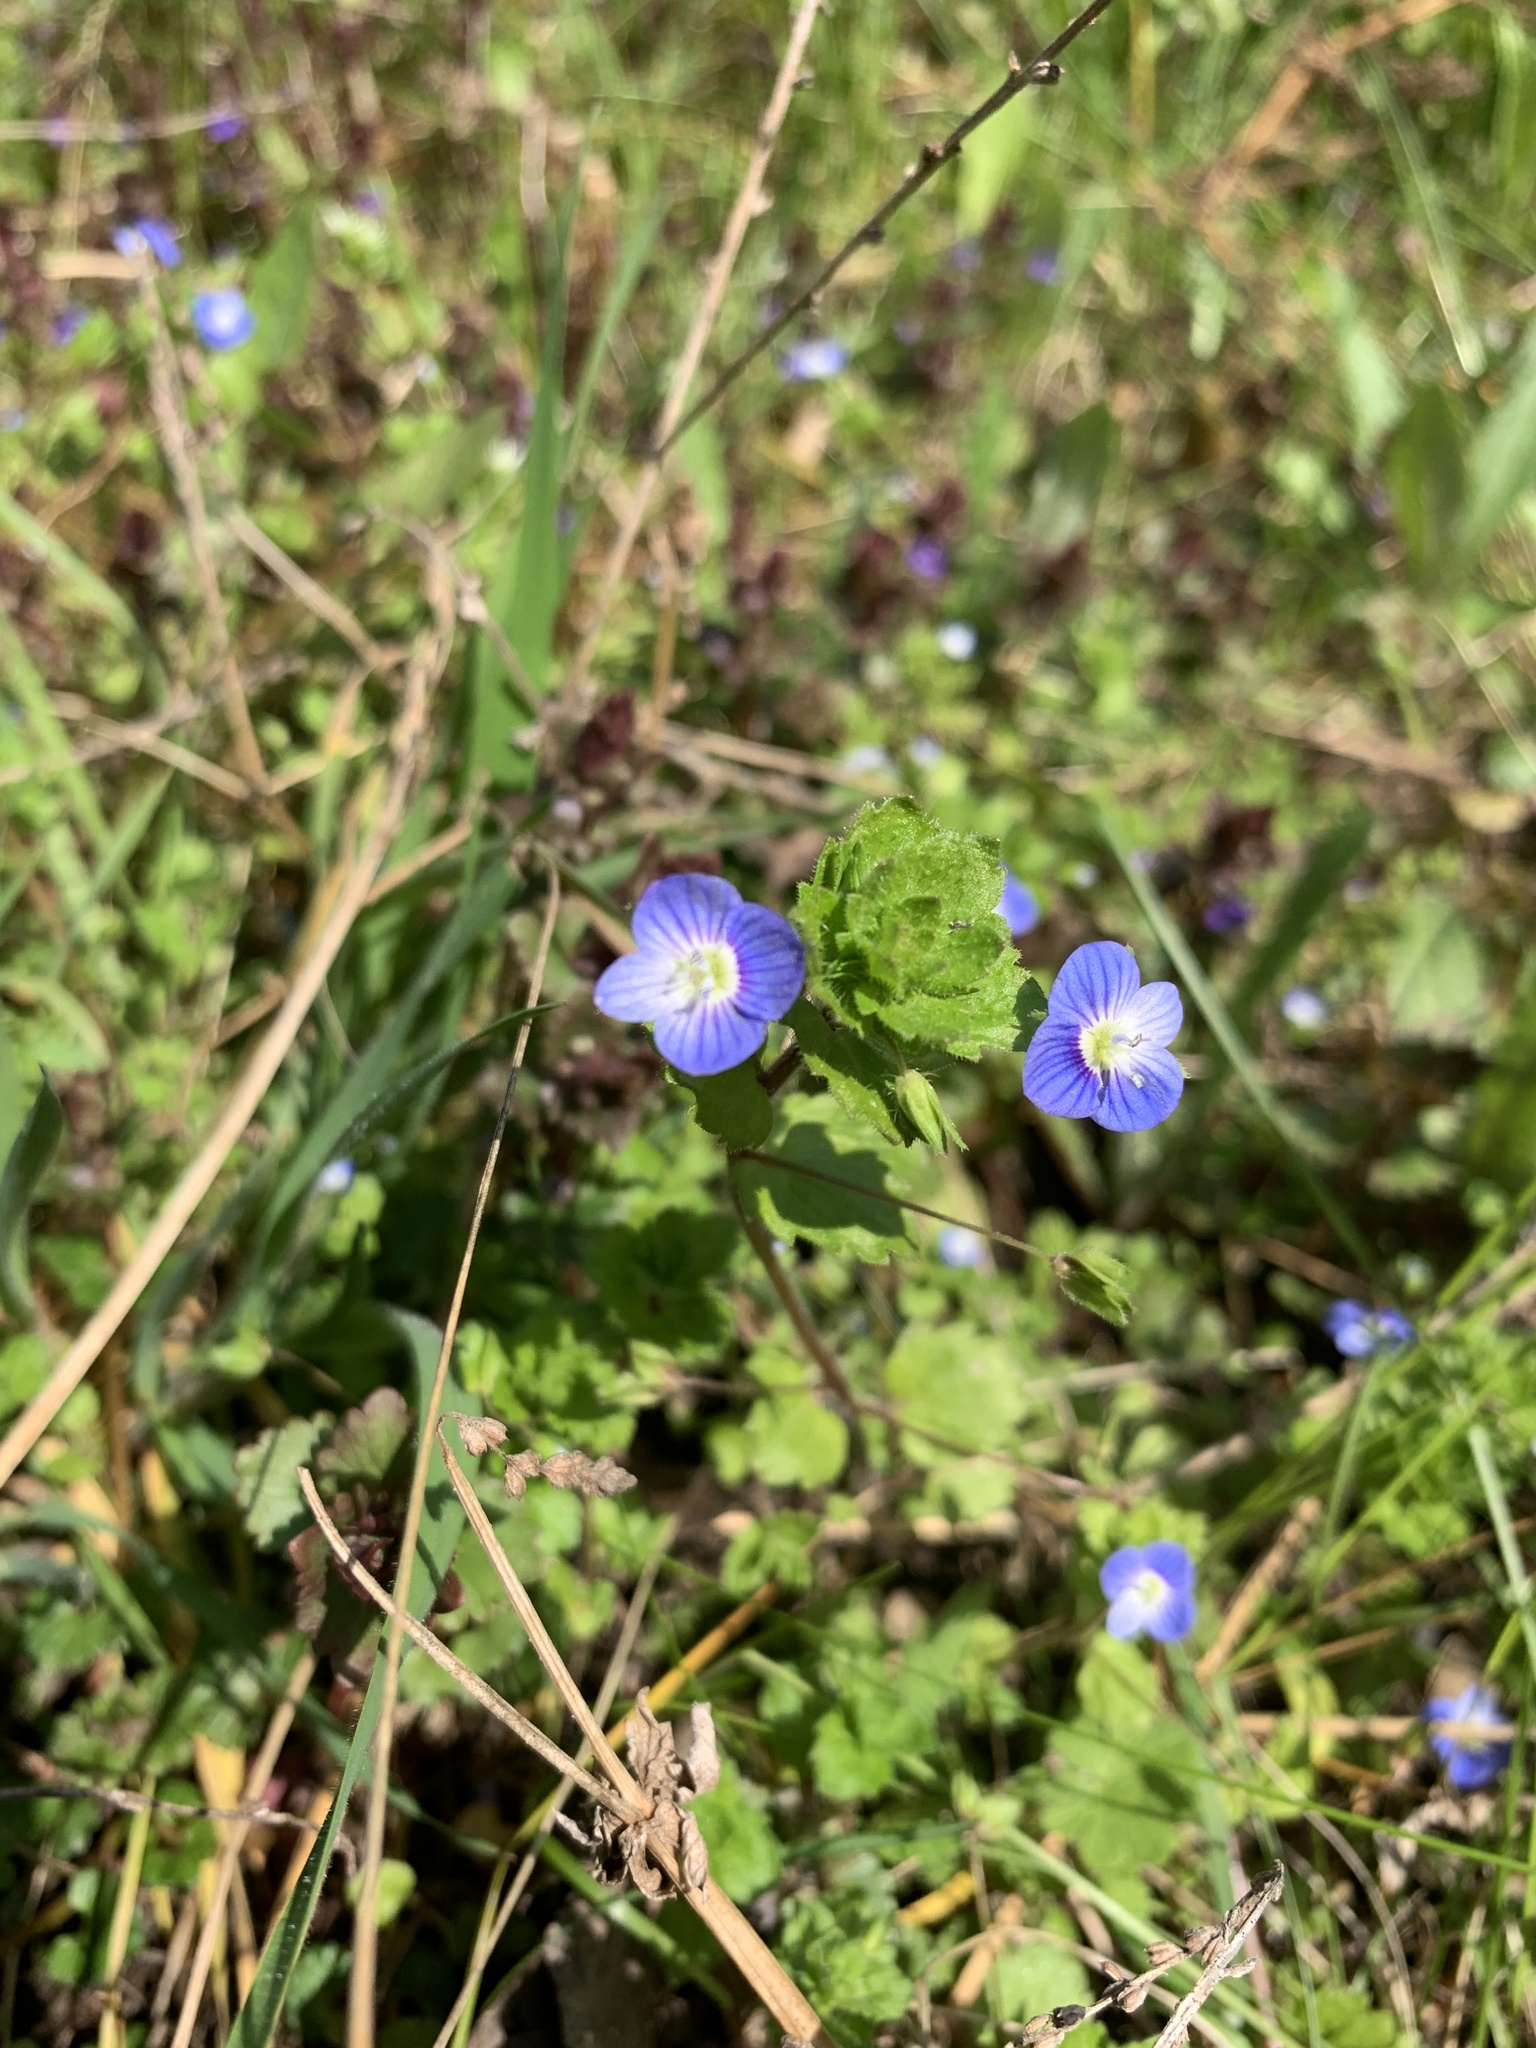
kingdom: Plantae
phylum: Tracheophyta
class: Magnoliopsida
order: Lamiales
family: Plantaginaceae
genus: Veronica
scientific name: Veronica persica
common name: Common field-speedwell
